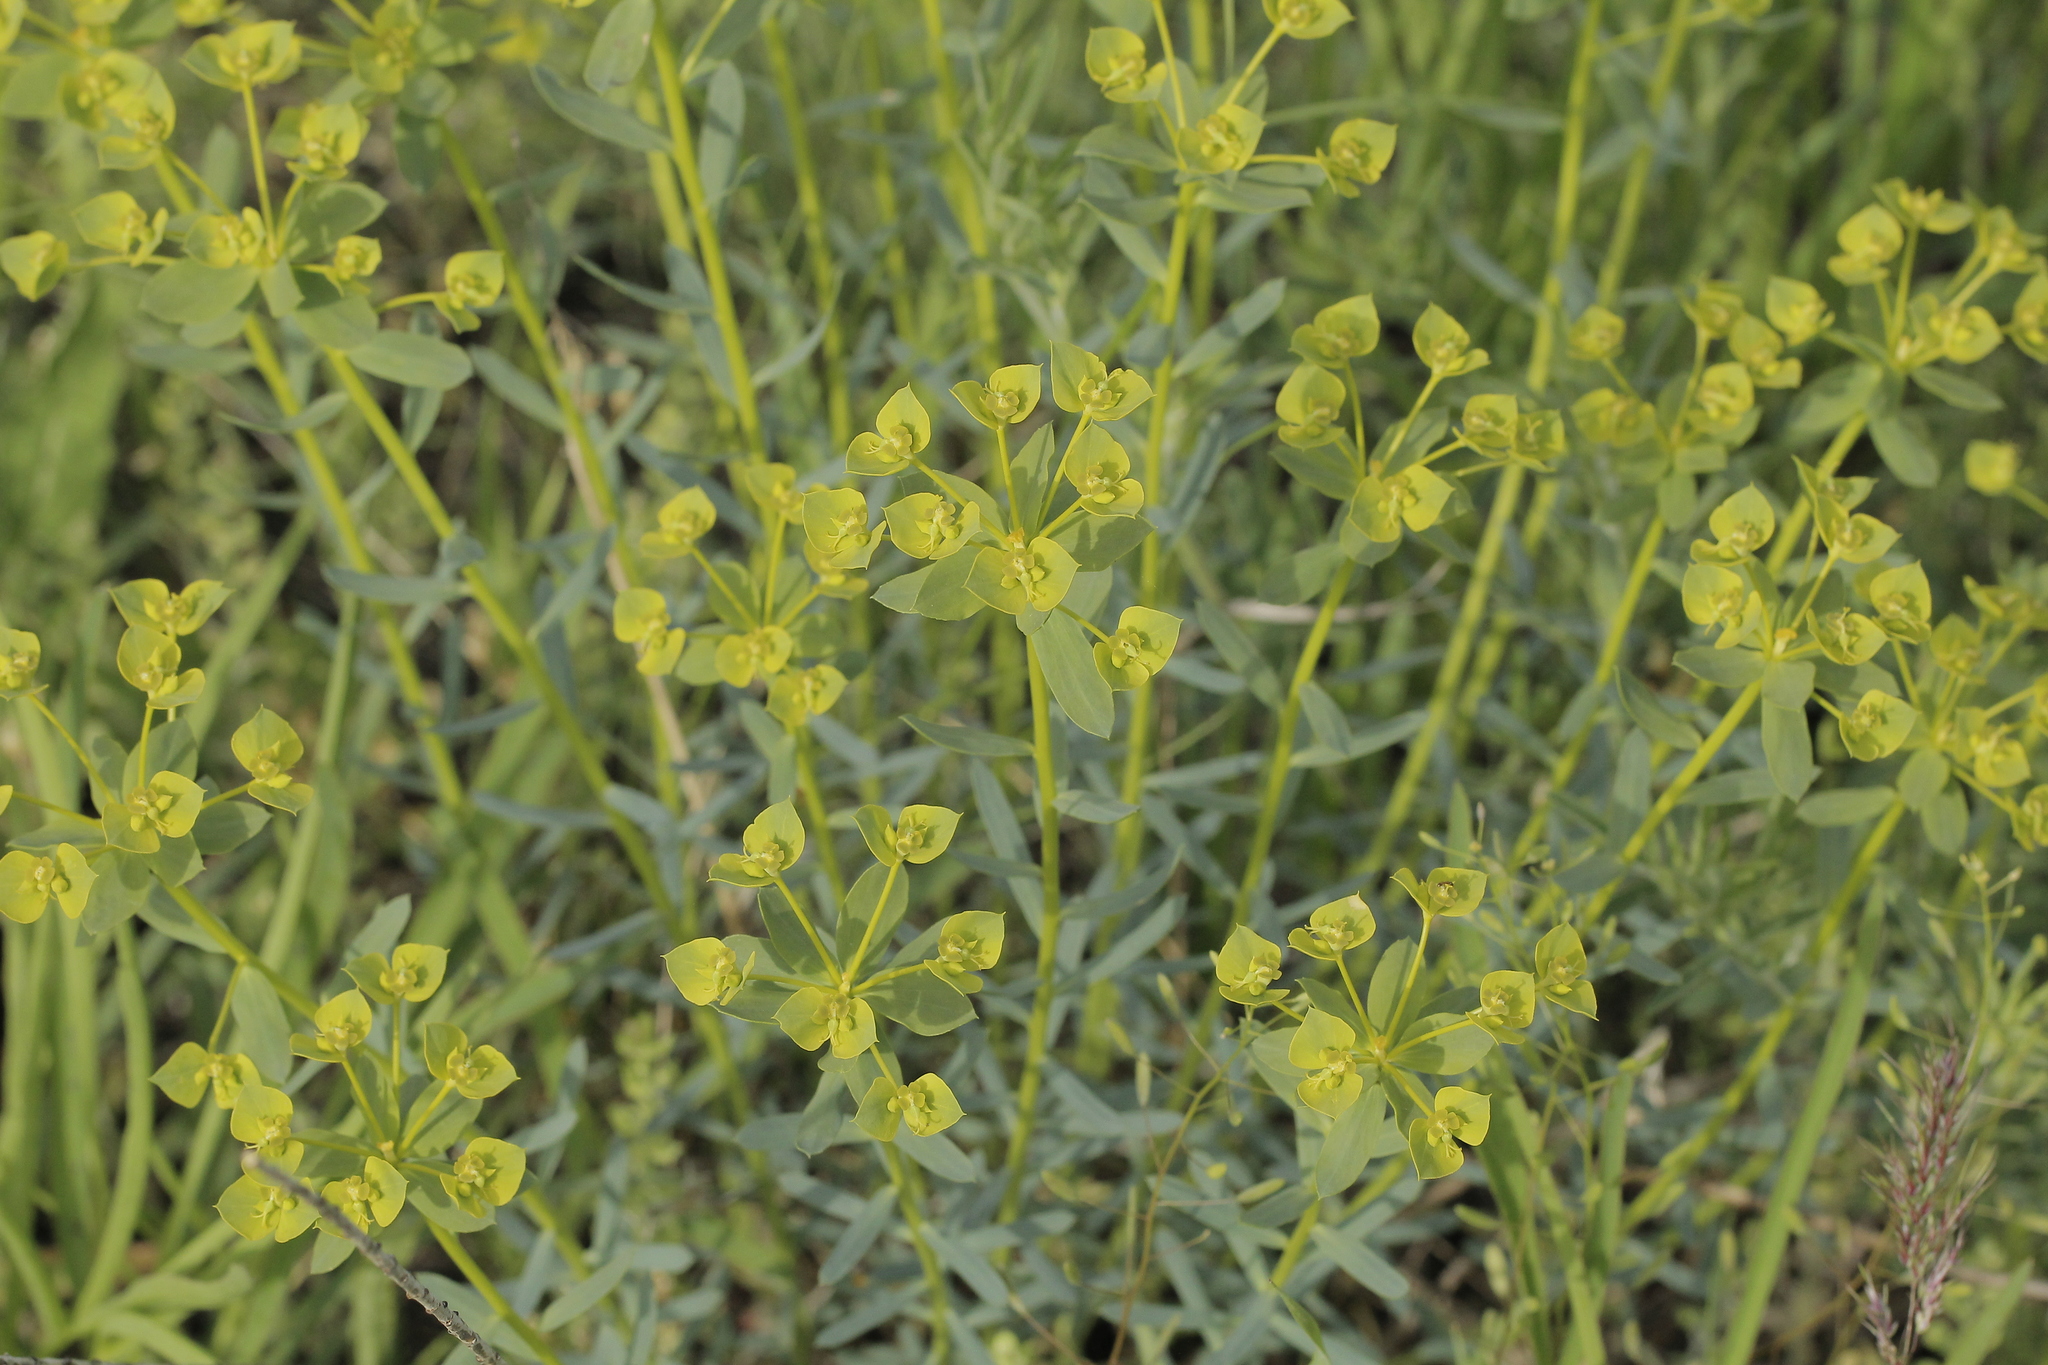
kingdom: Plantae
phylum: Tracheophyta
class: Magnoliopsida
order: Malpighiales
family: Euphorbiaceae
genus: Euphorbia
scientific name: Euphorbia seguieriana
